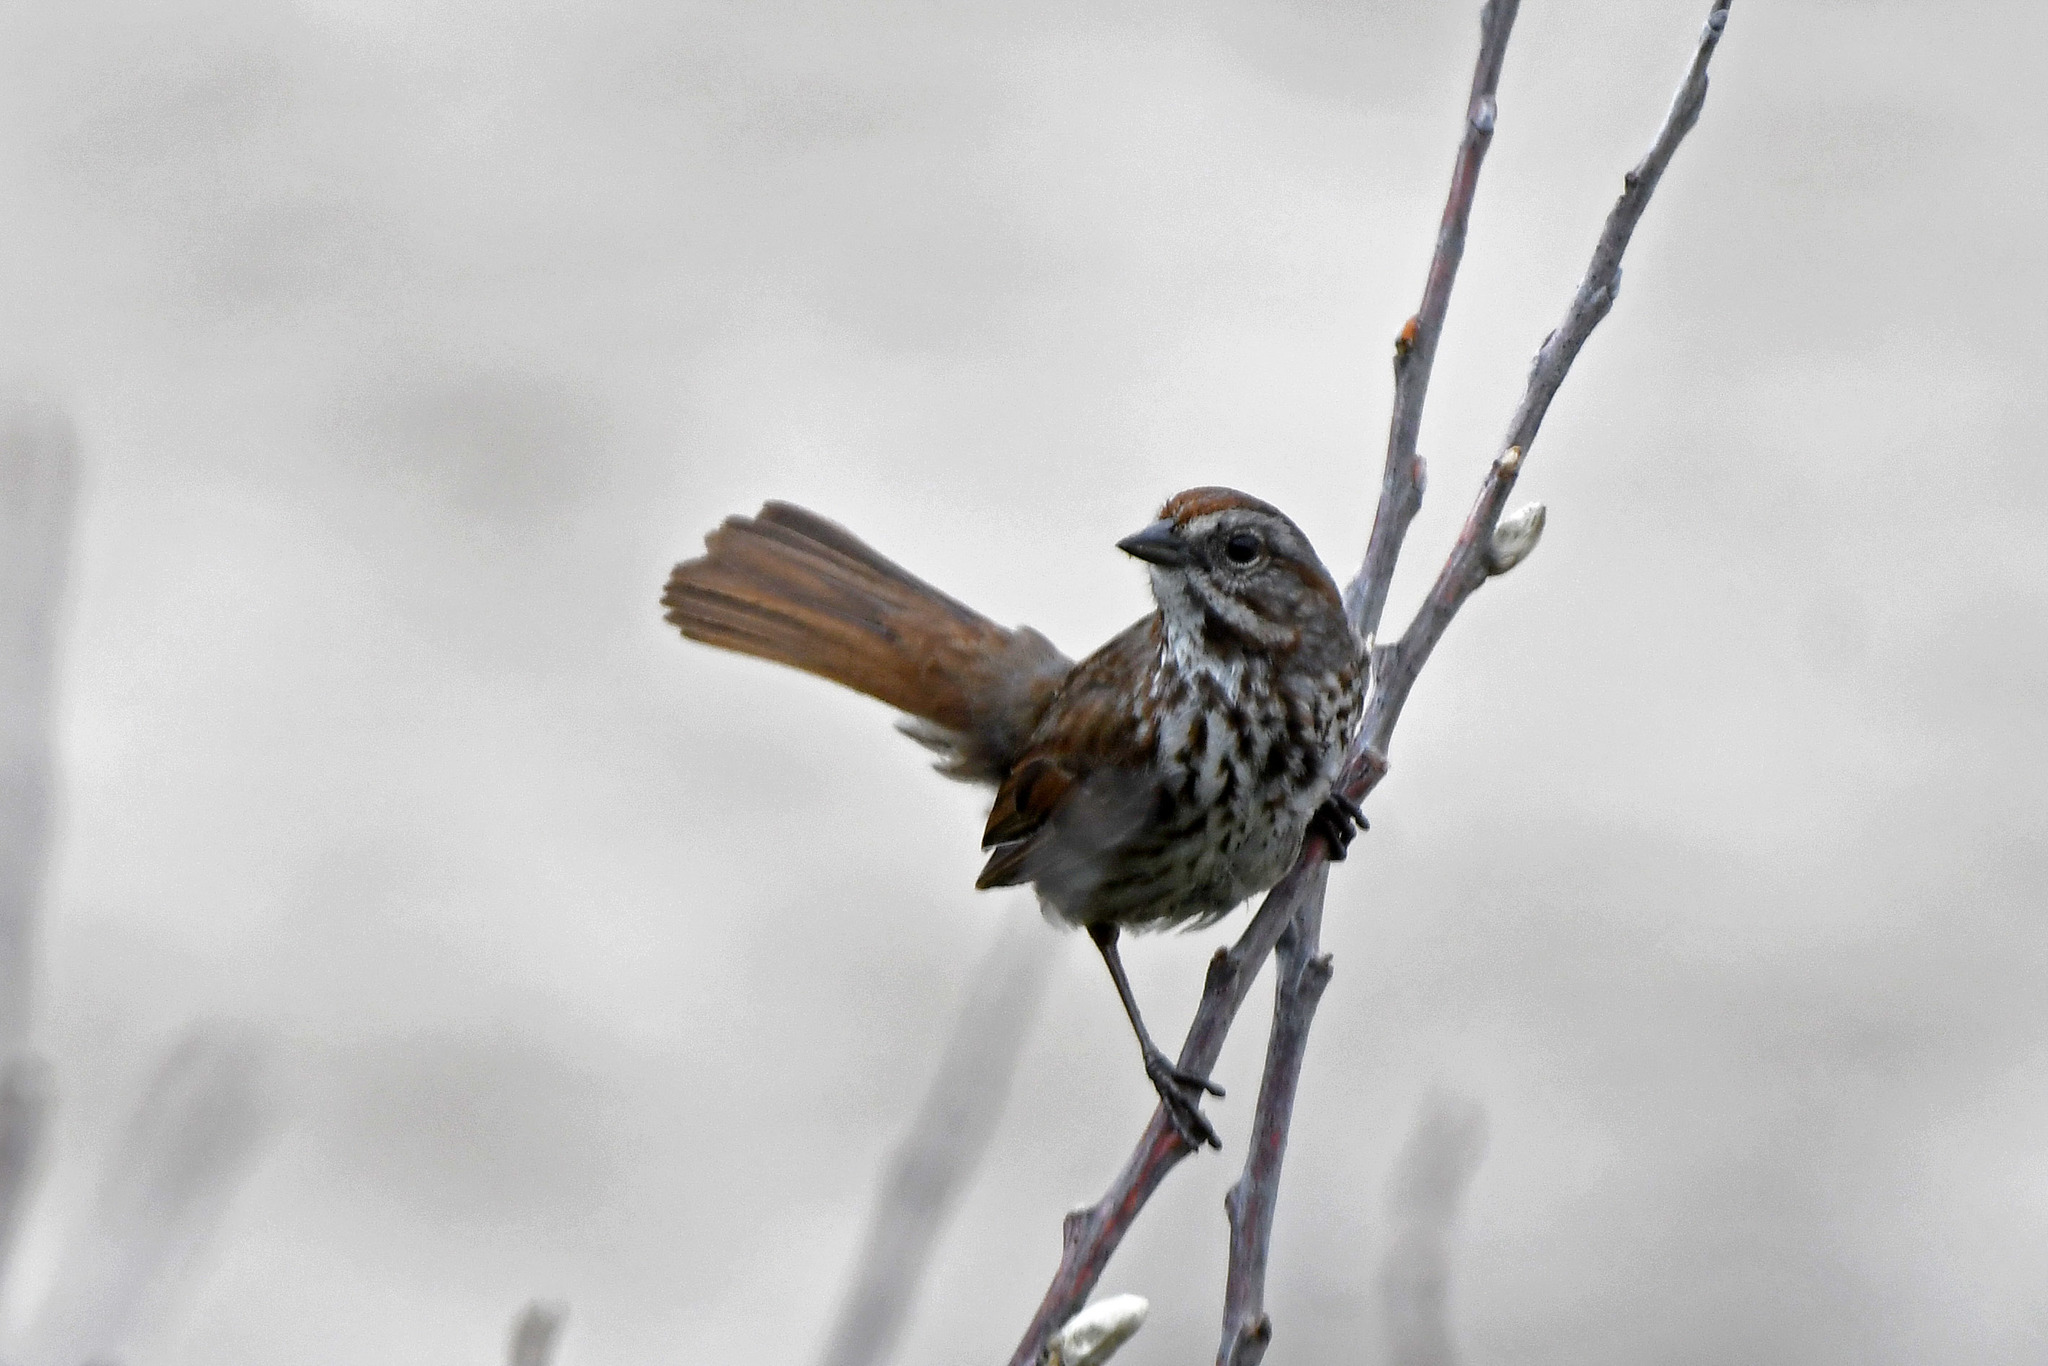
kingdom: Animalia
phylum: Chordata
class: Aves
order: Passeriformes
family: Passerellidae
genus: Melospiza
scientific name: Melospiza melodia
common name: Song sparrow
